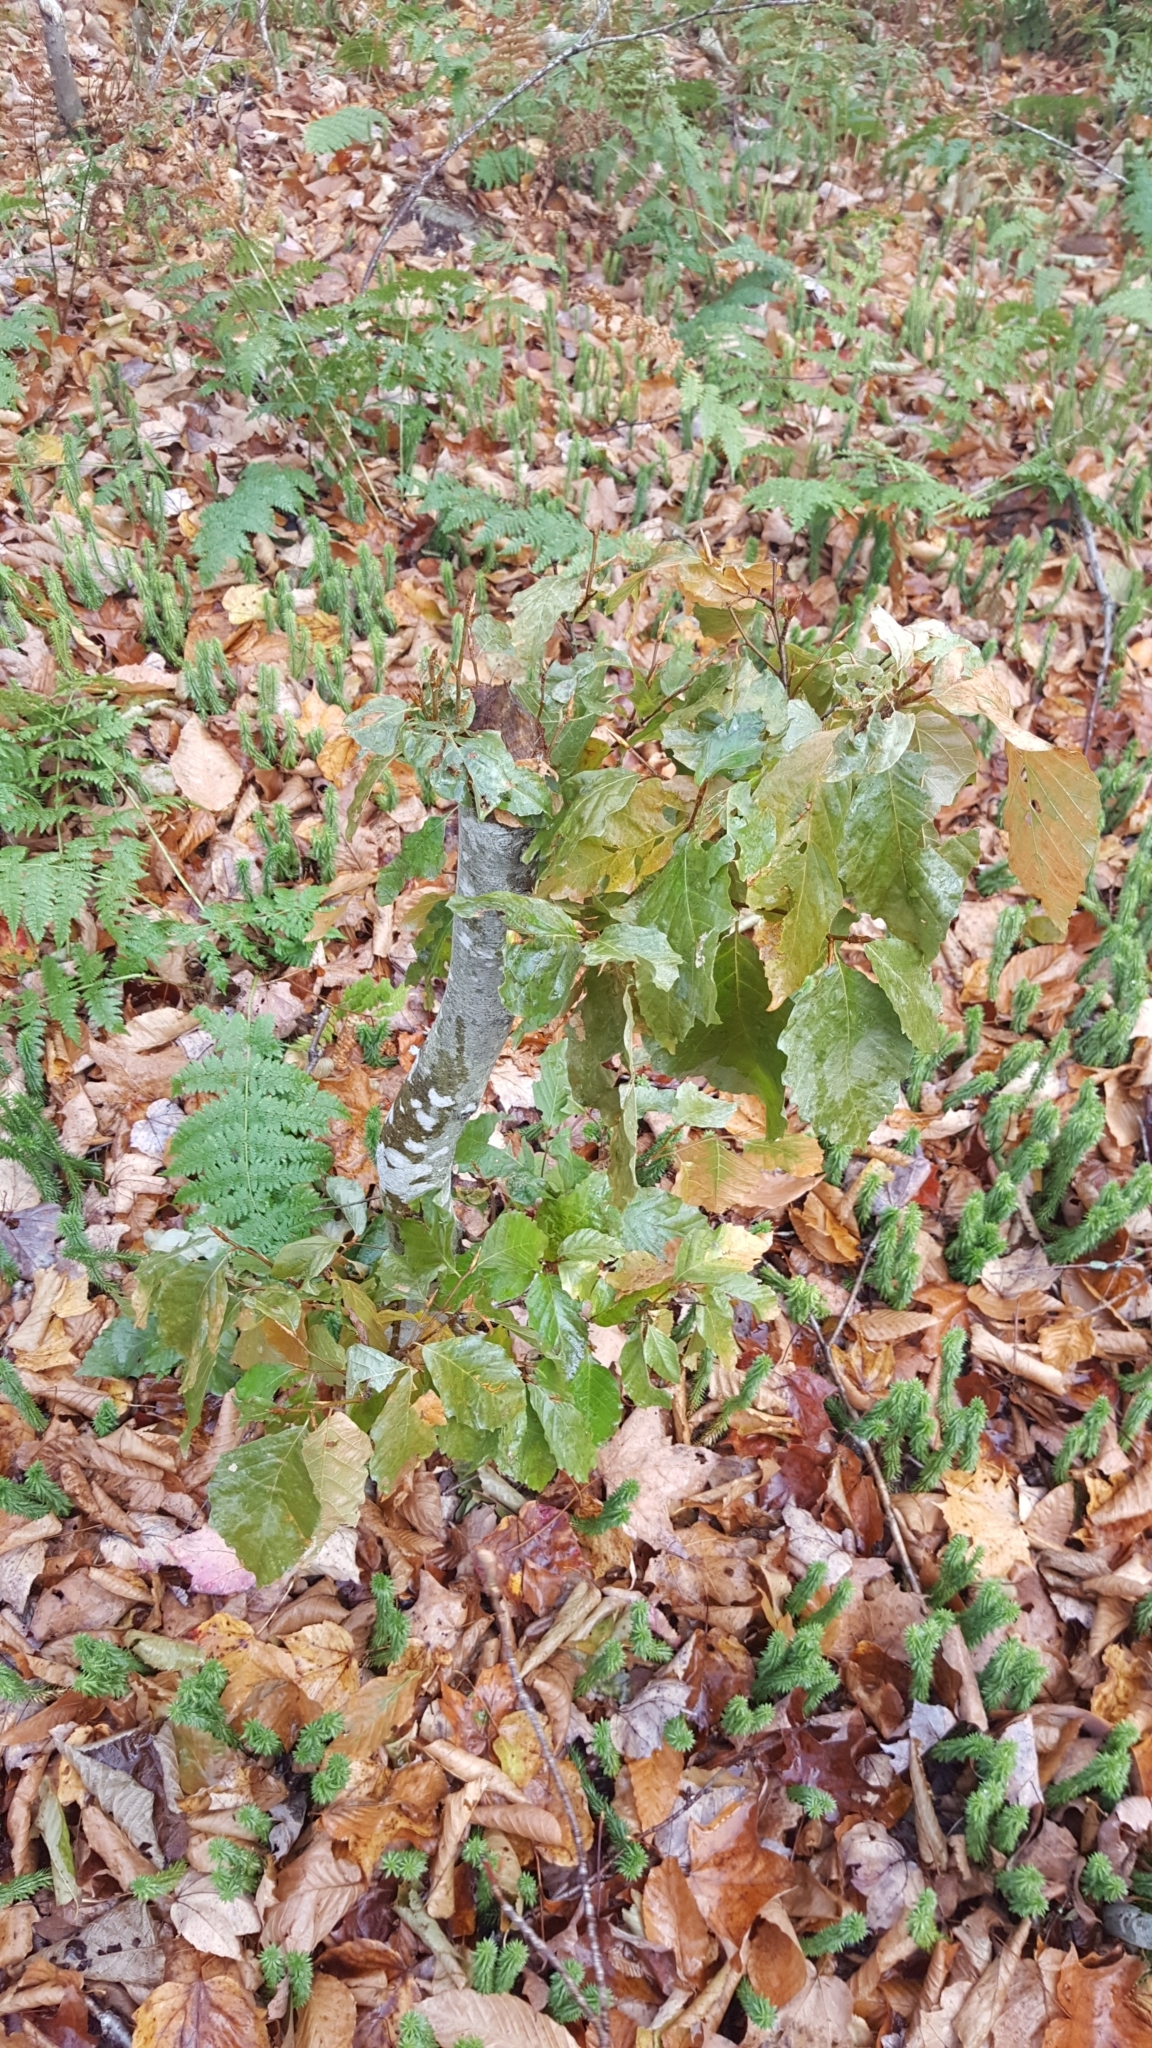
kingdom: Plantae
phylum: Tracheophyta
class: Magnoliopsida
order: Fagales
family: Fagaceae
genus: Fagus
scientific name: Fagus grandifolia
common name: American beech
